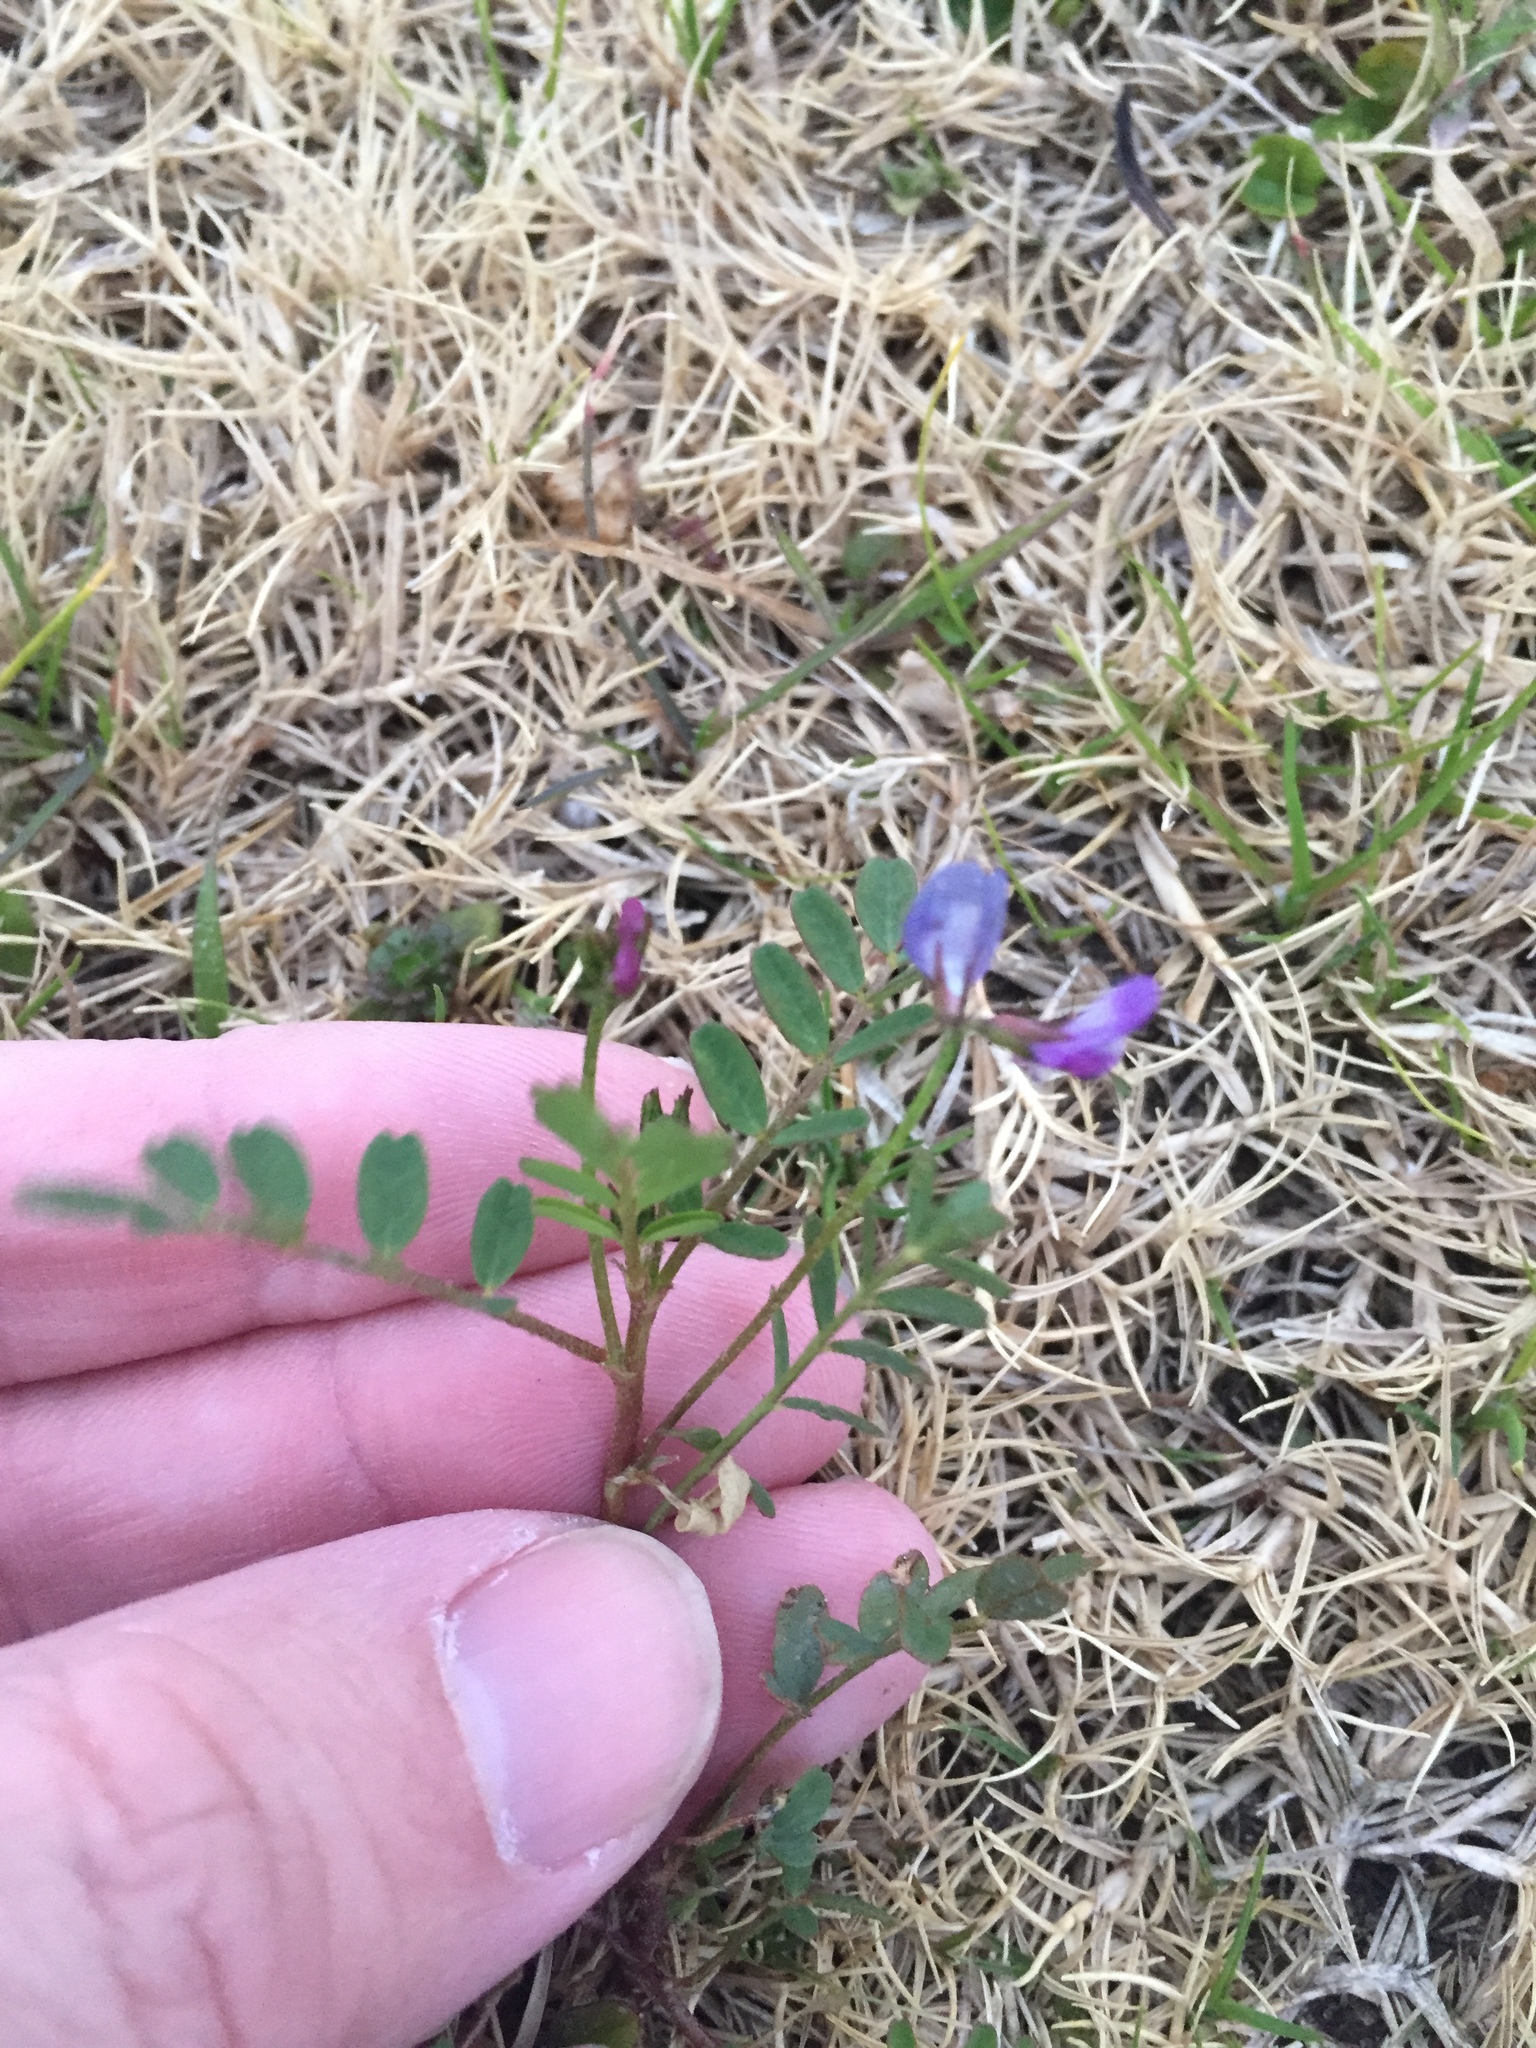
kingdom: Plantae
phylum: Tracheophyta
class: Magnoliopsida
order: Fabales
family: Fabaceae
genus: Astragalus
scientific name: Astragalus leptocarpus
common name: Bodkin milk-vetch
